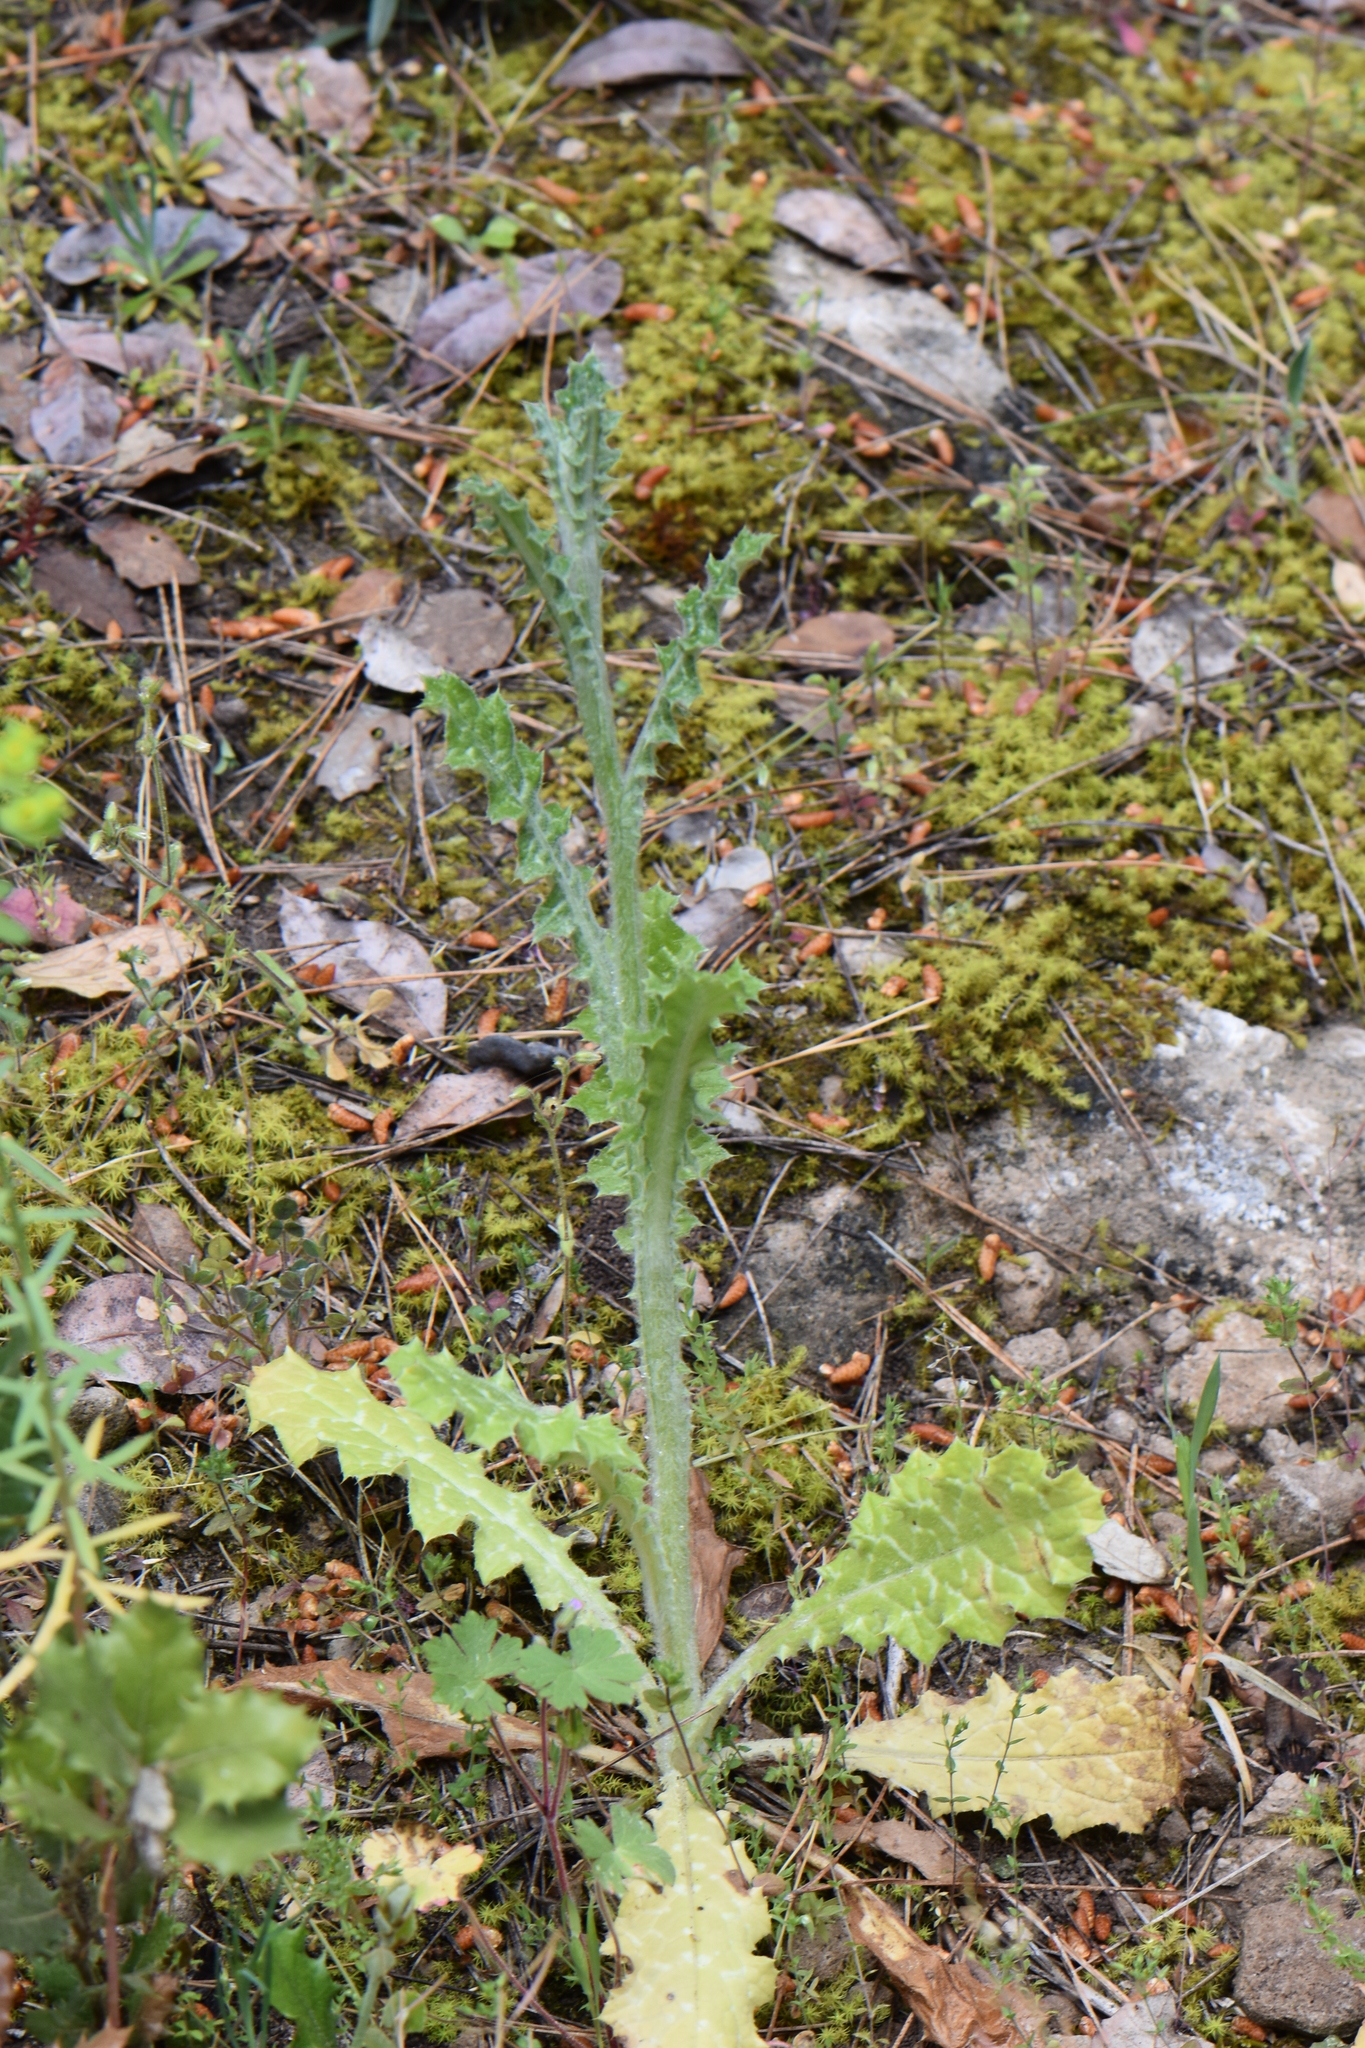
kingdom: Plantae
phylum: Tracheophyta
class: Magnoliopsida
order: Asterales
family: Asteraceae
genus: Tyrimnus
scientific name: Tyrimnus leucographus
